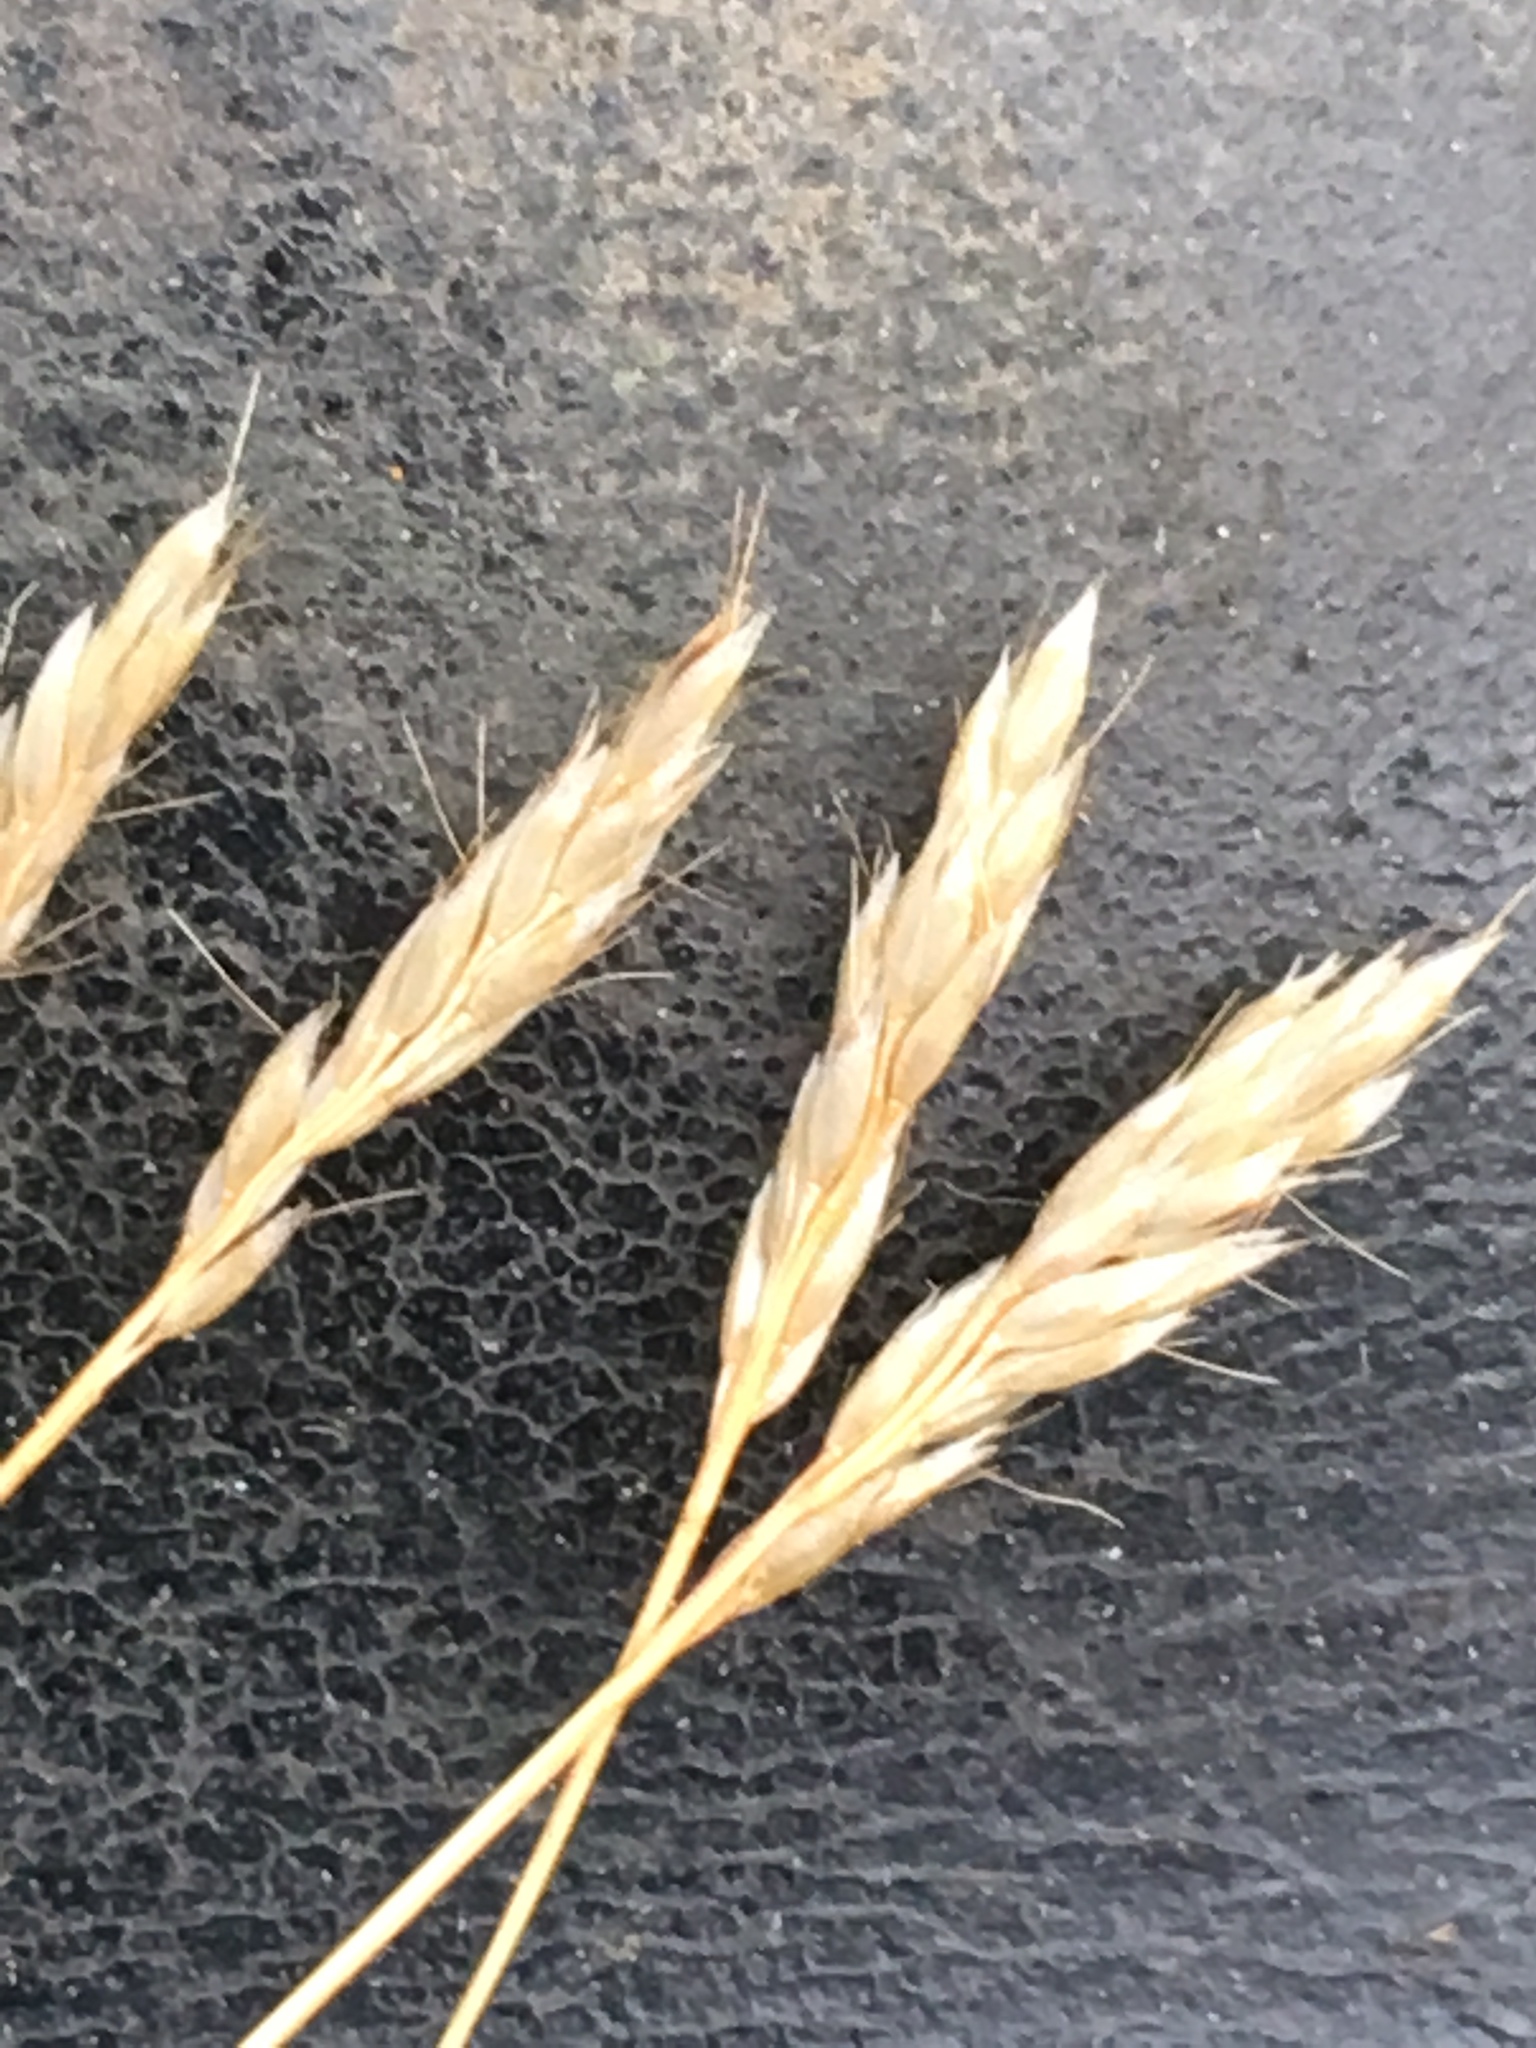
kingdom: Plantae
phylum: Tracheophyta
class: Liliopsida
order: Poales
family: Poaceae
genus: Aira
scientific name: Aira praecox
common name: Early hair-grass
